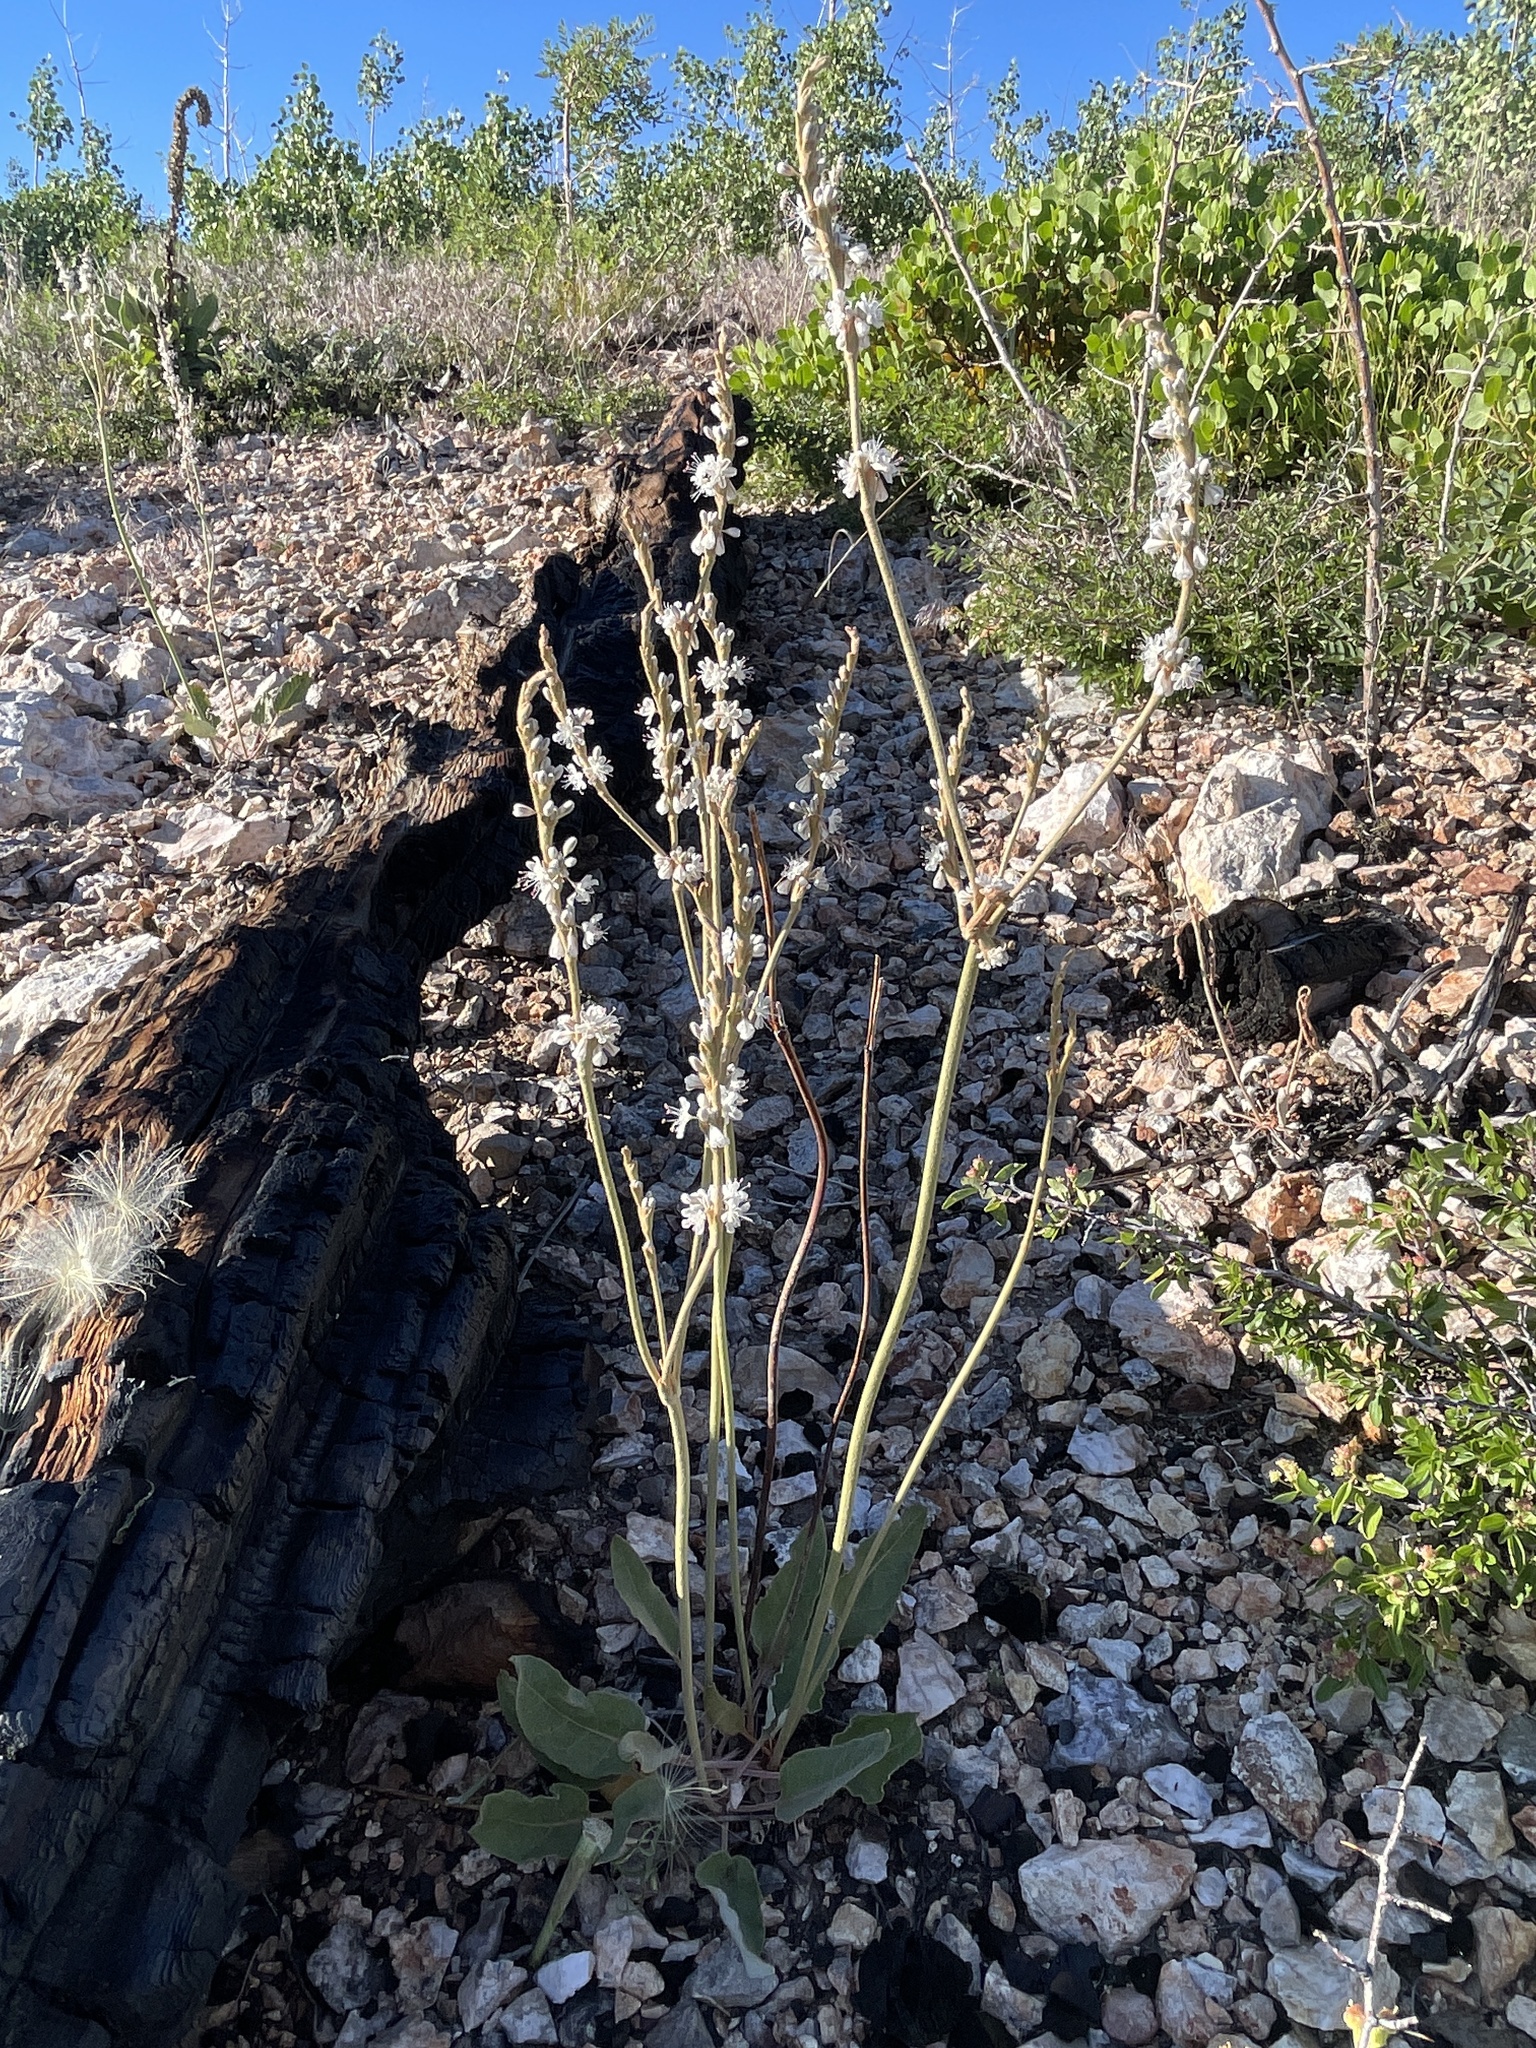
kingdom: Plantae
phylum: Tracheophyta
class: Magnoliopsida
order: Caryophyllales
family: Polygonaceae
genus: Eriogonum
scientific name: Eriogonum racemosum
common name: Redroot wild buckwheat
